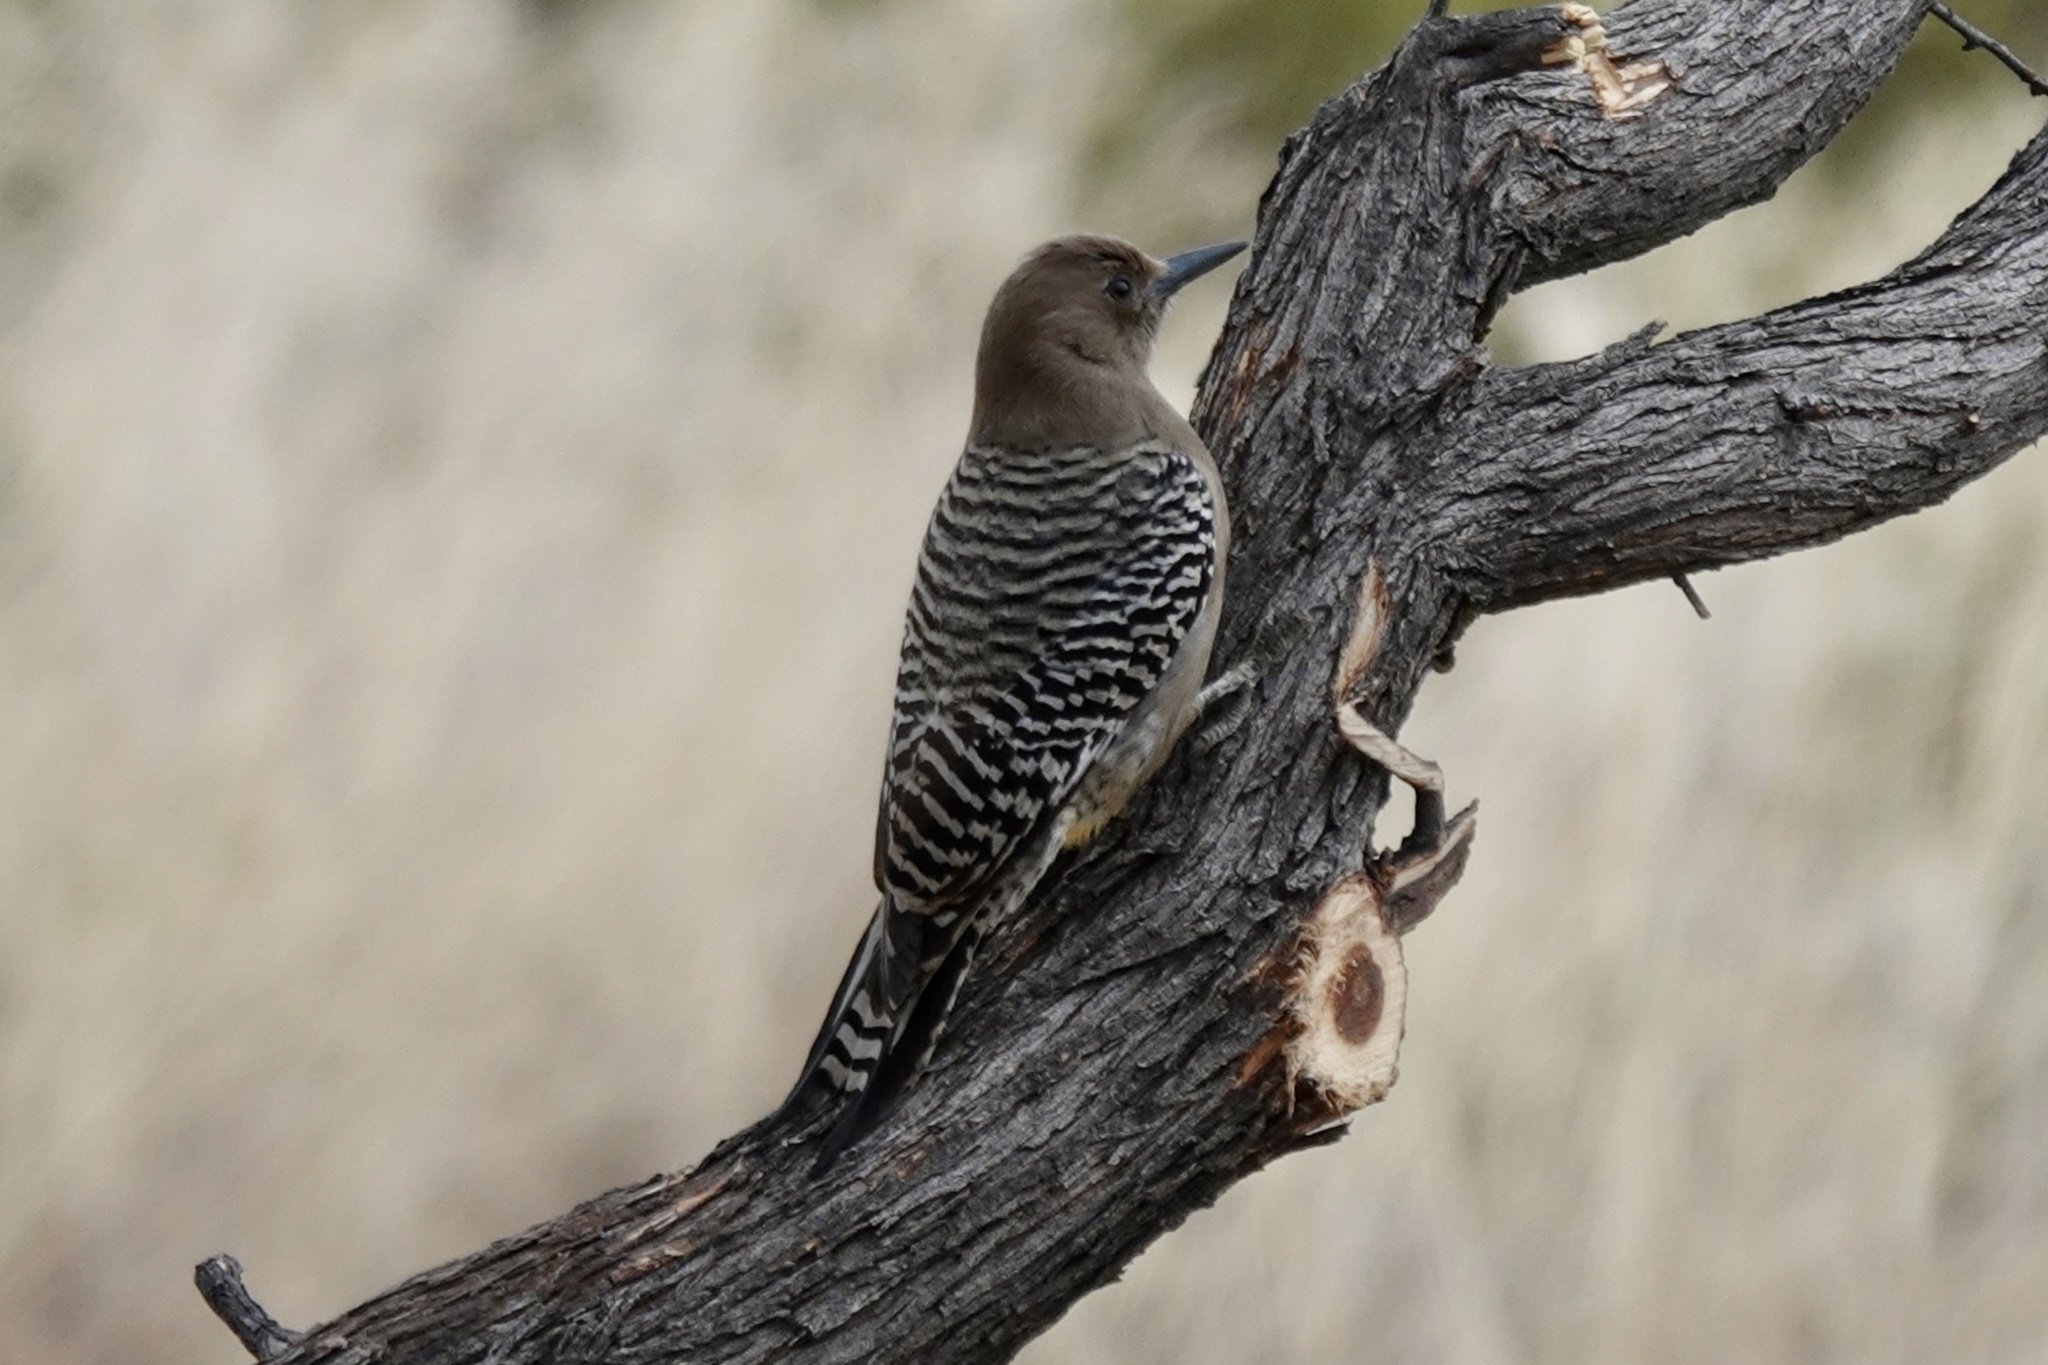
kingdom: Animalia
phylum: Chordata
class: Aves
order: Piciformes
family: Picidae
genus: Melanerpes
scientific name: Melanerpes uropygialis
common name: Gila woodpecker
